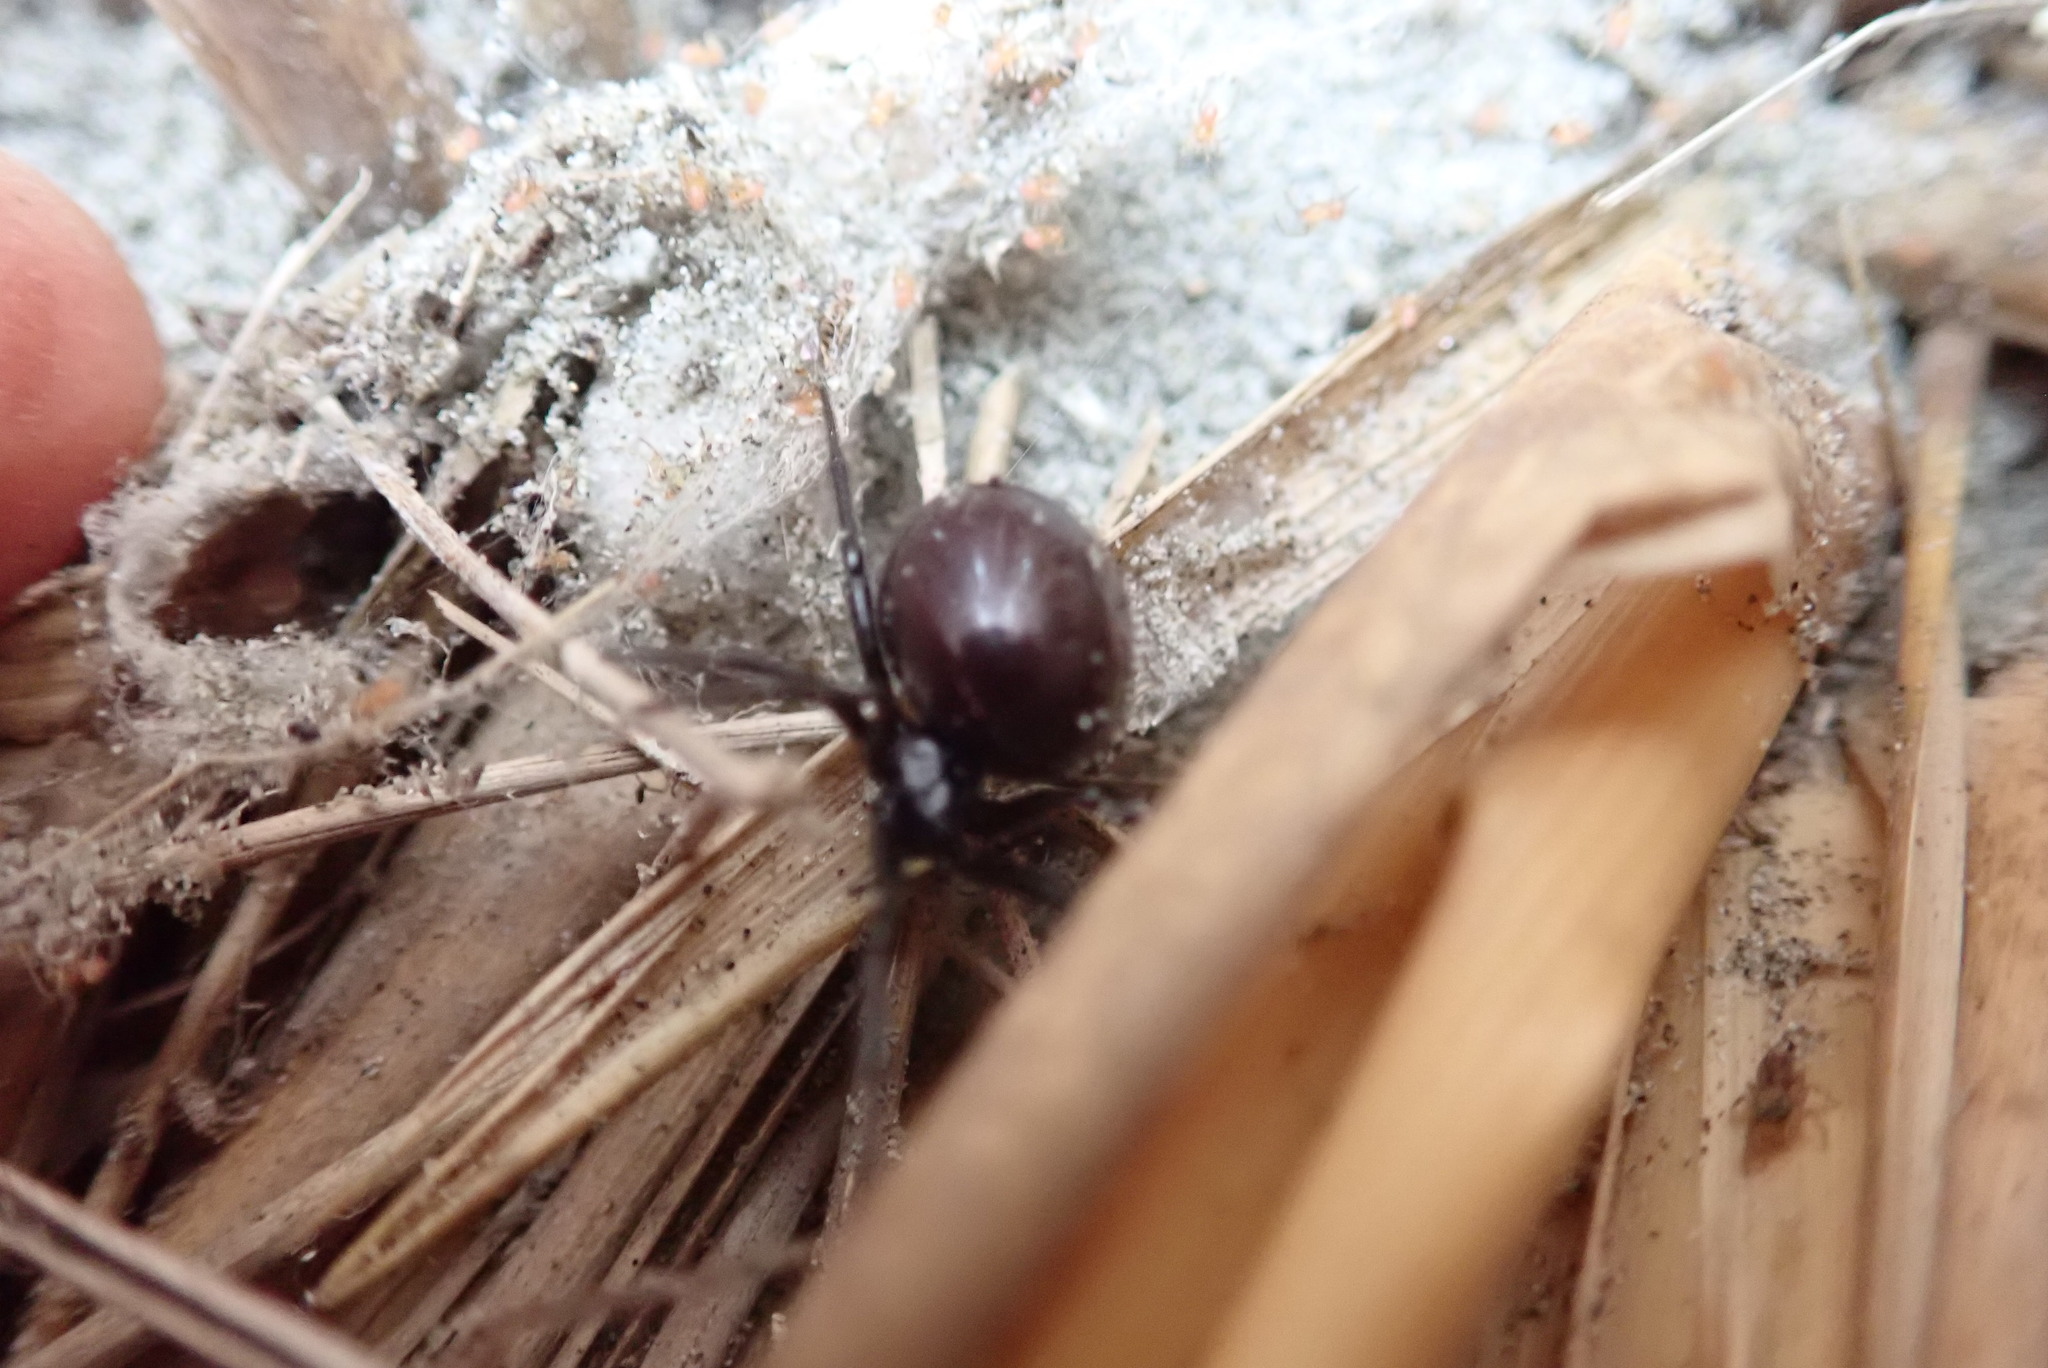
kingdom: Animalia
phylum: Arthropoda
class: Arachnida
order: Araneae
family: Theridiidae
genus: Steatoda
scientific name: Steatoda capensis
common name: Cobweb weaver
